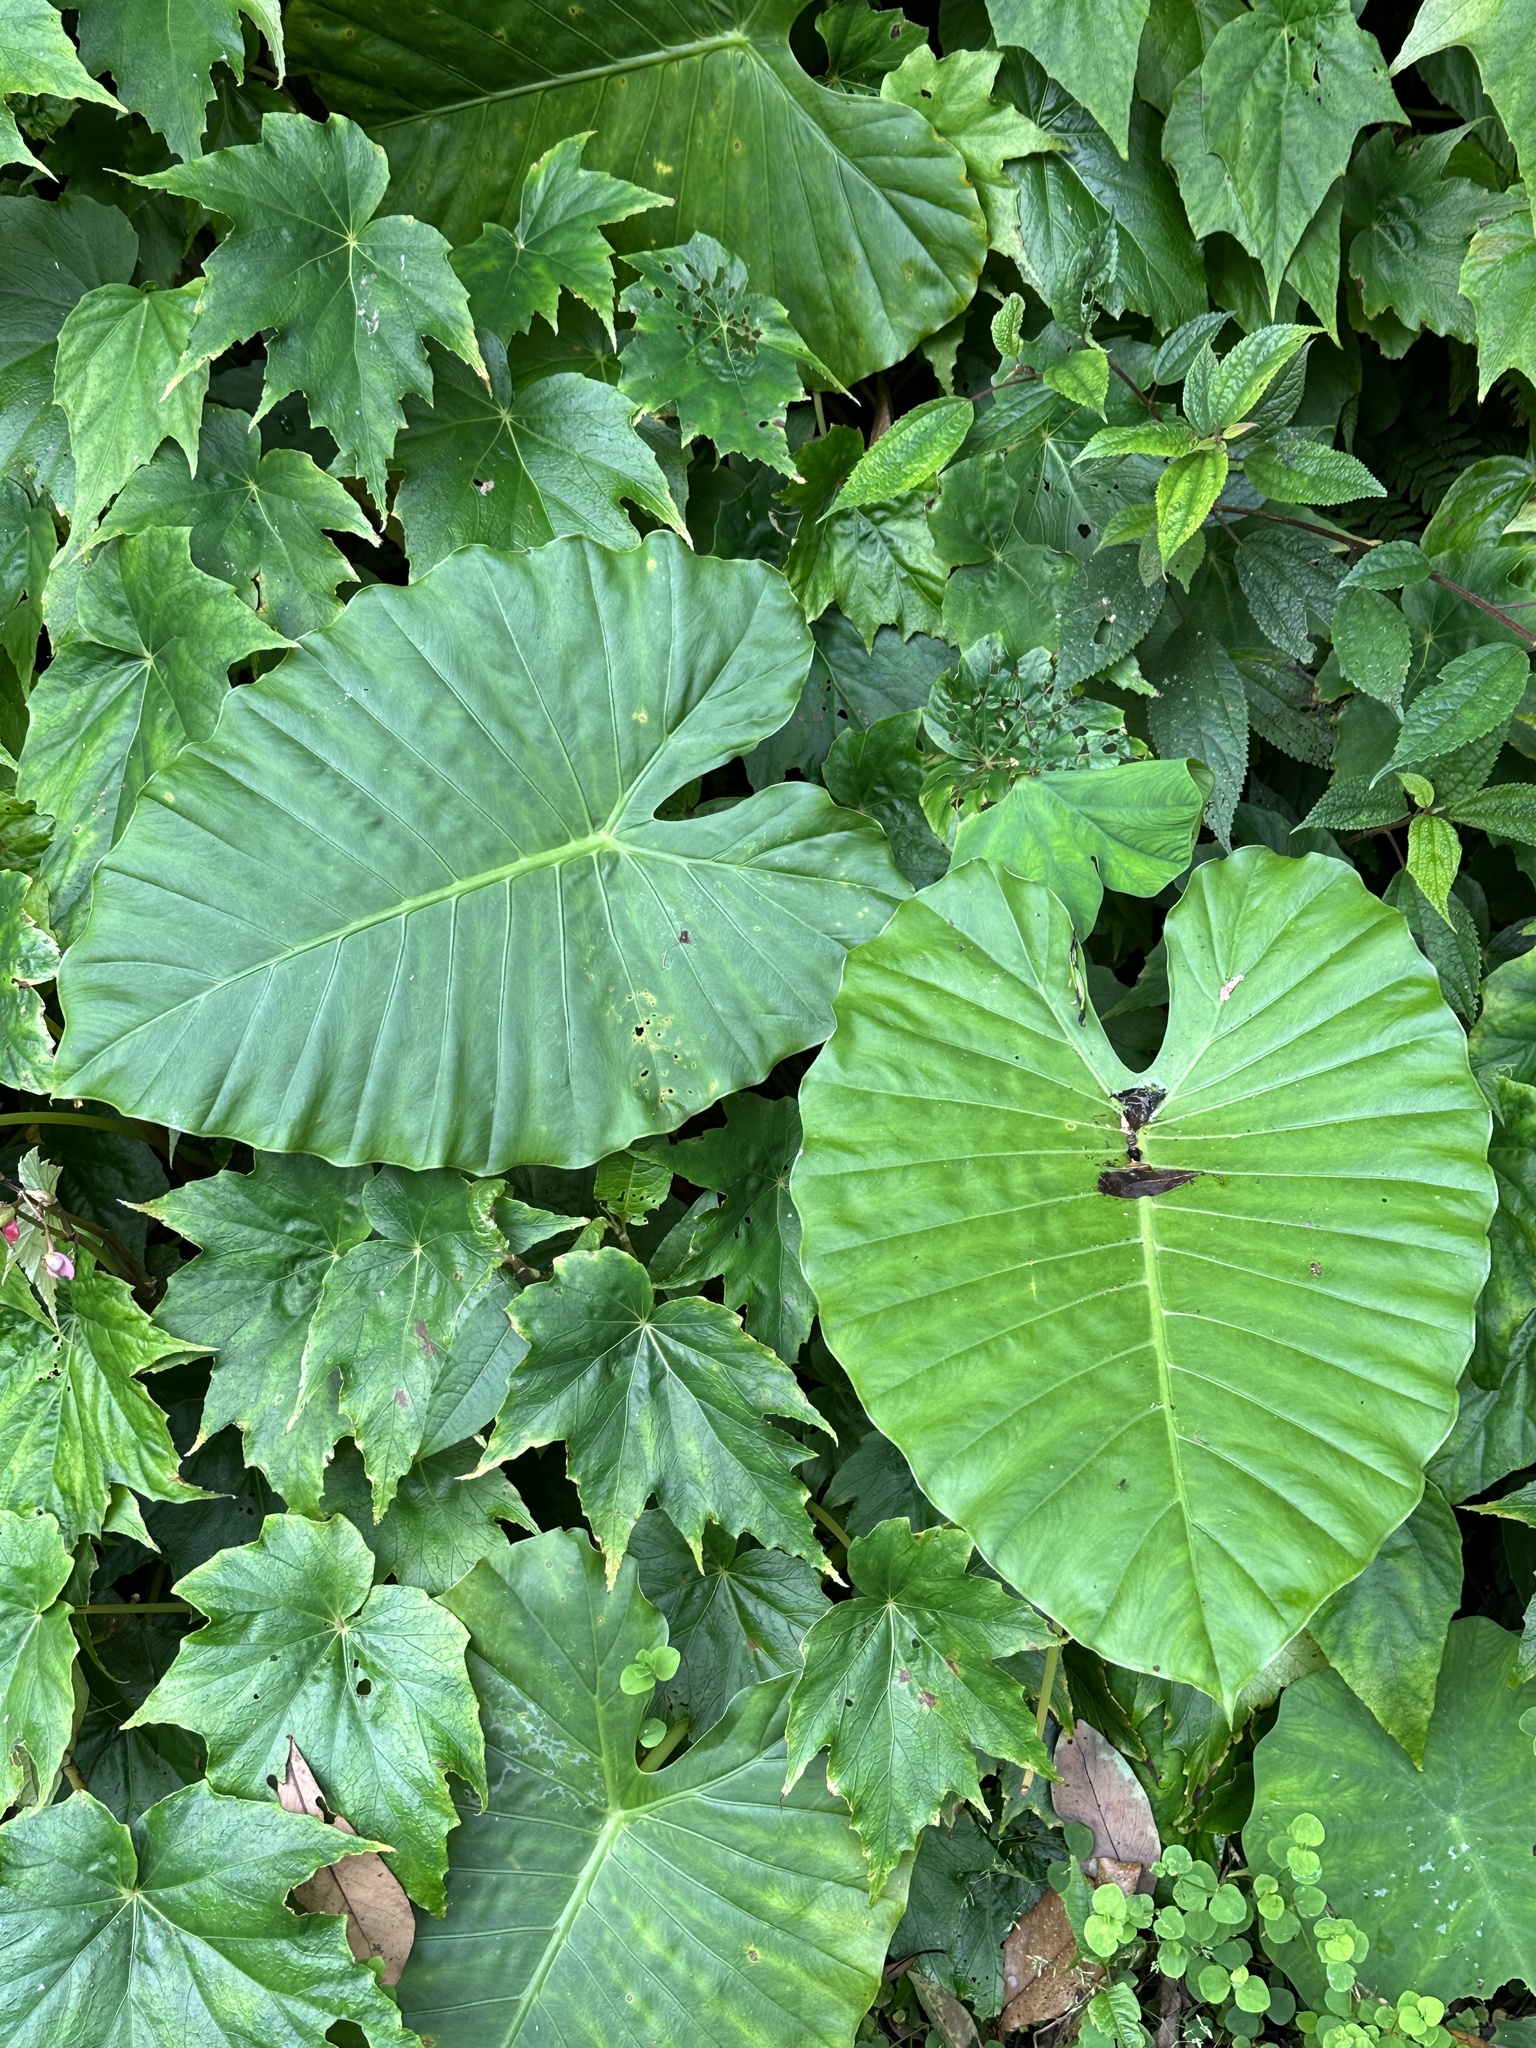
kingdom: Plantae
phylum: Tracheophyta
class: Liliopsida
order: Alismatales
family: Araceae
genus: Alocasia
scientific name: Alocasia odora
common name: Asian taro
